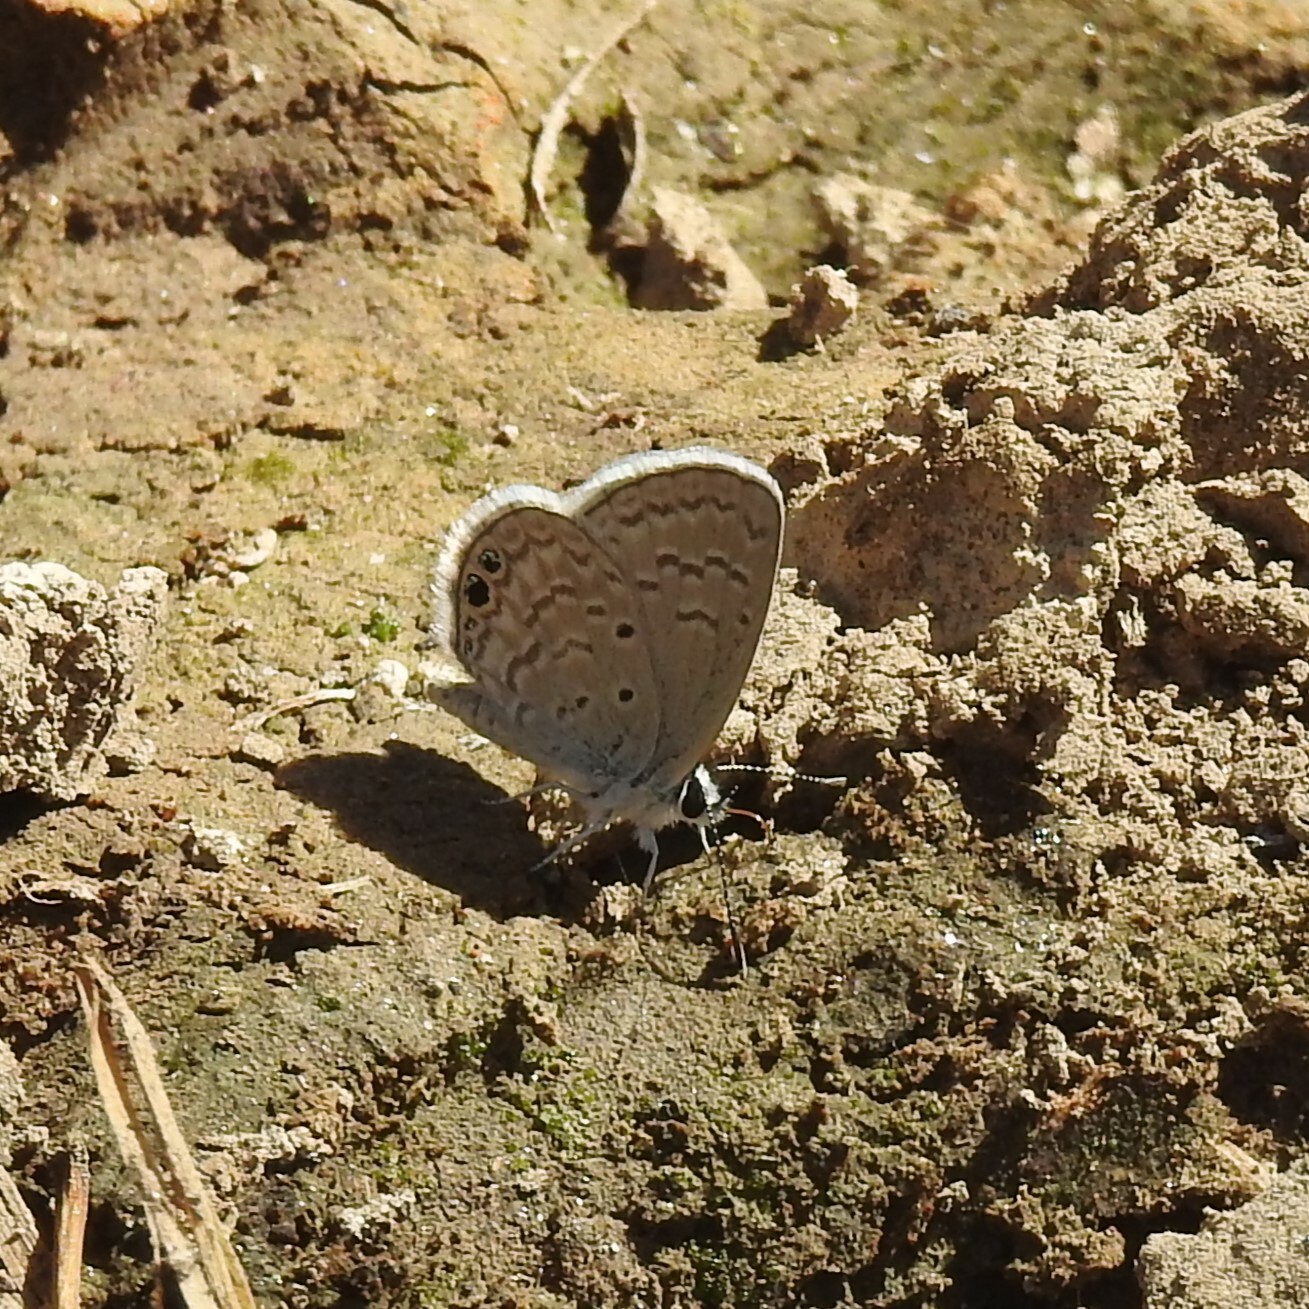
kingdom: Animalia
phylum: Arthropoda
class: Insecta
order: Lepidoptera
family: Lycaenidae
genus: Hemiargus
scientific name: Hemiargus ceraunus
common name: Ceraunus blue
